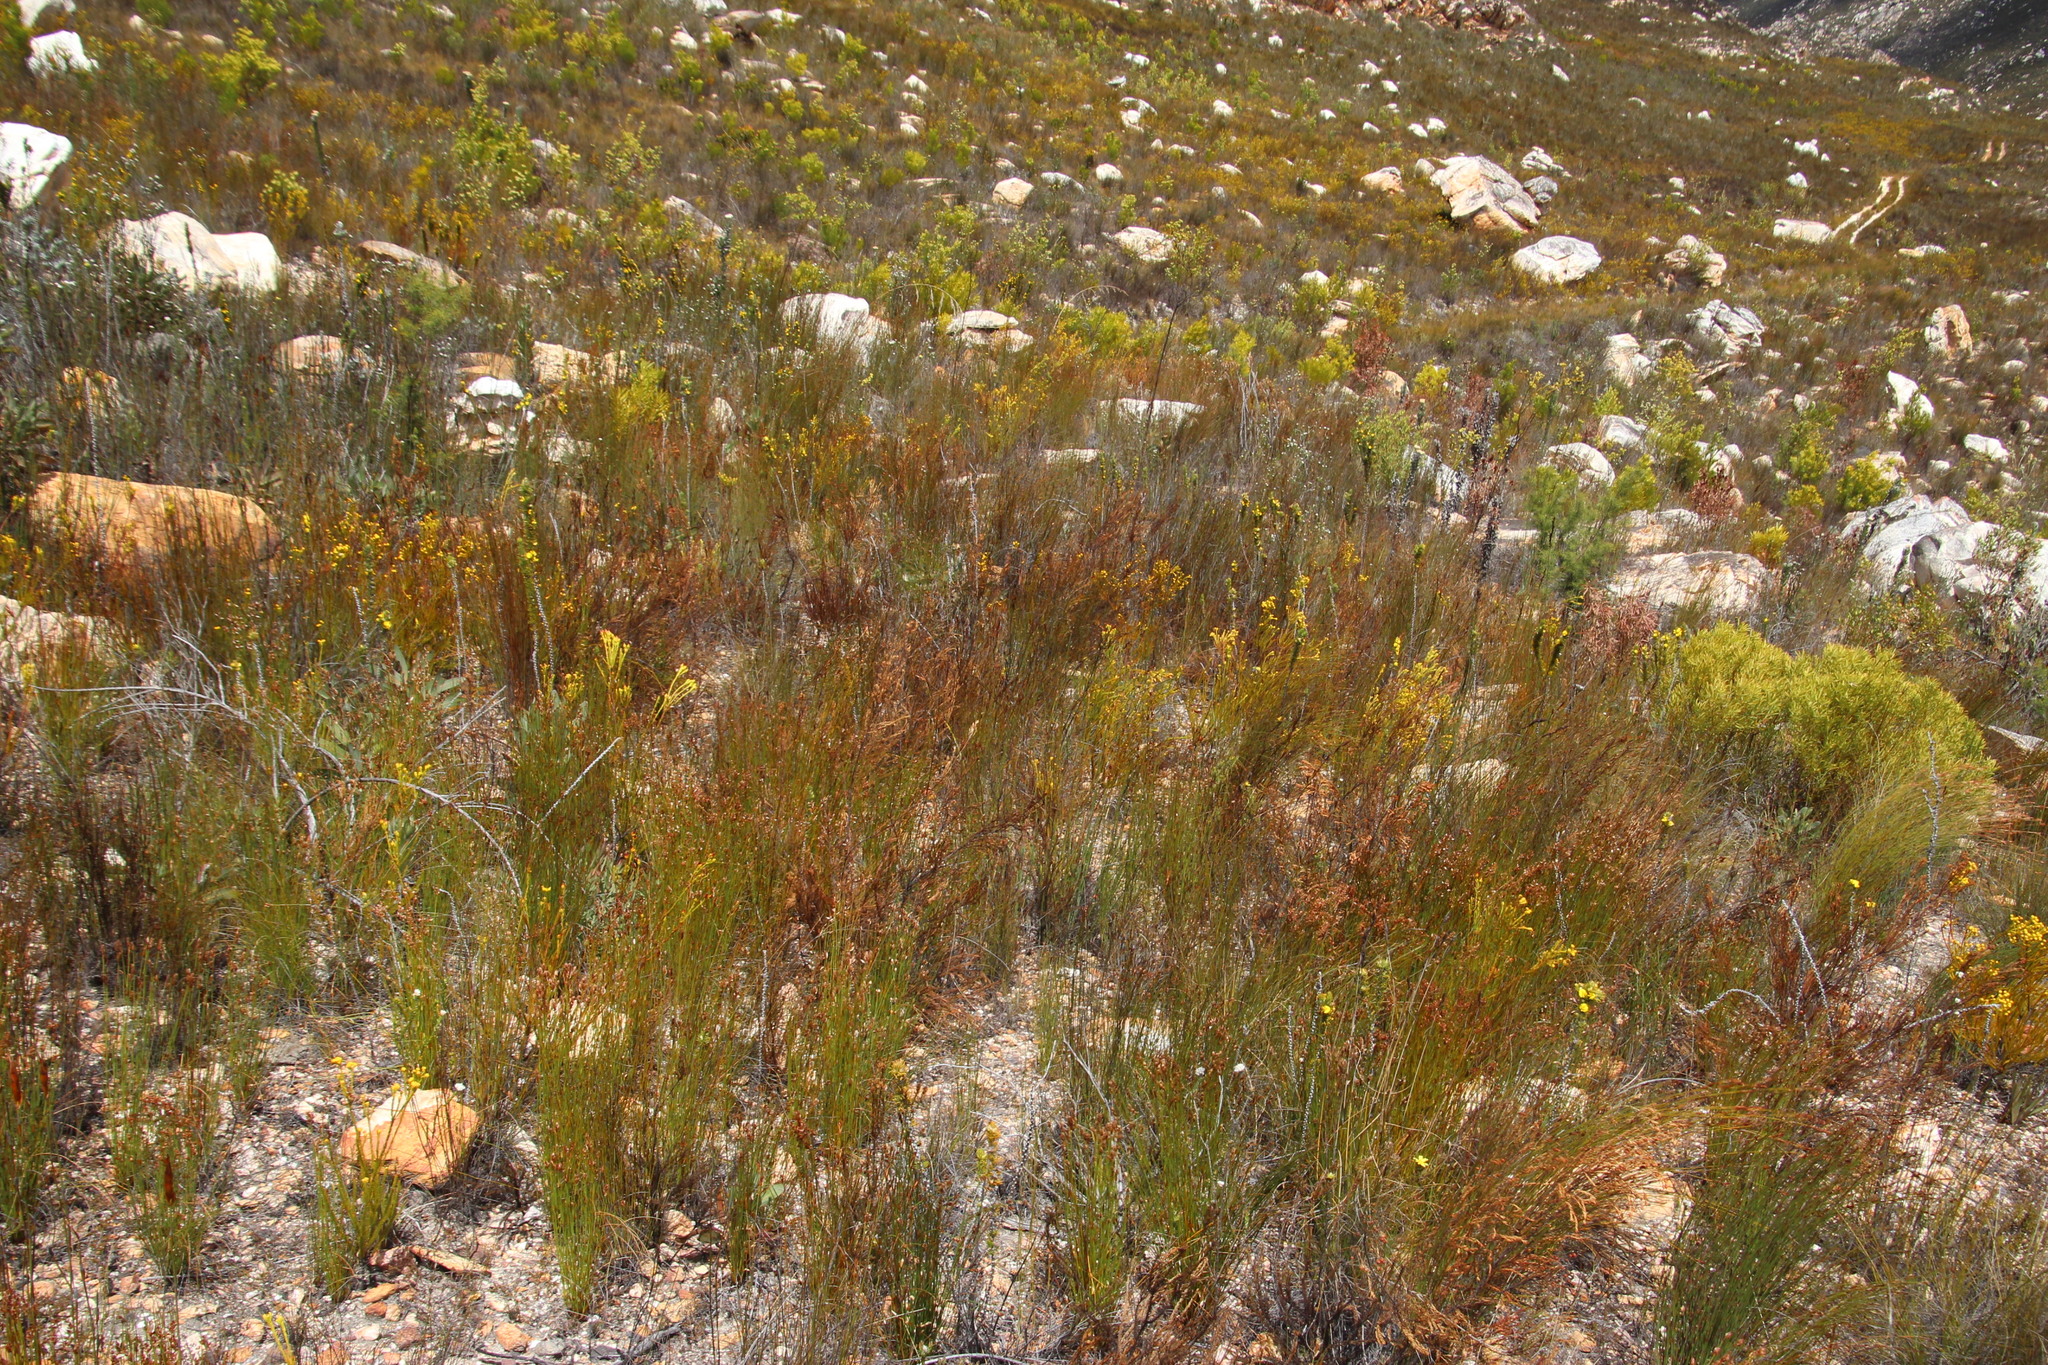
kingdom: Plantae
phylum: Tracheophyta
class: Magnoliopsida
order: Proteales
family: Proteaceae
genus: Leucadendron
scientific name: Leucadendron olens
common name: Yellow conebush
